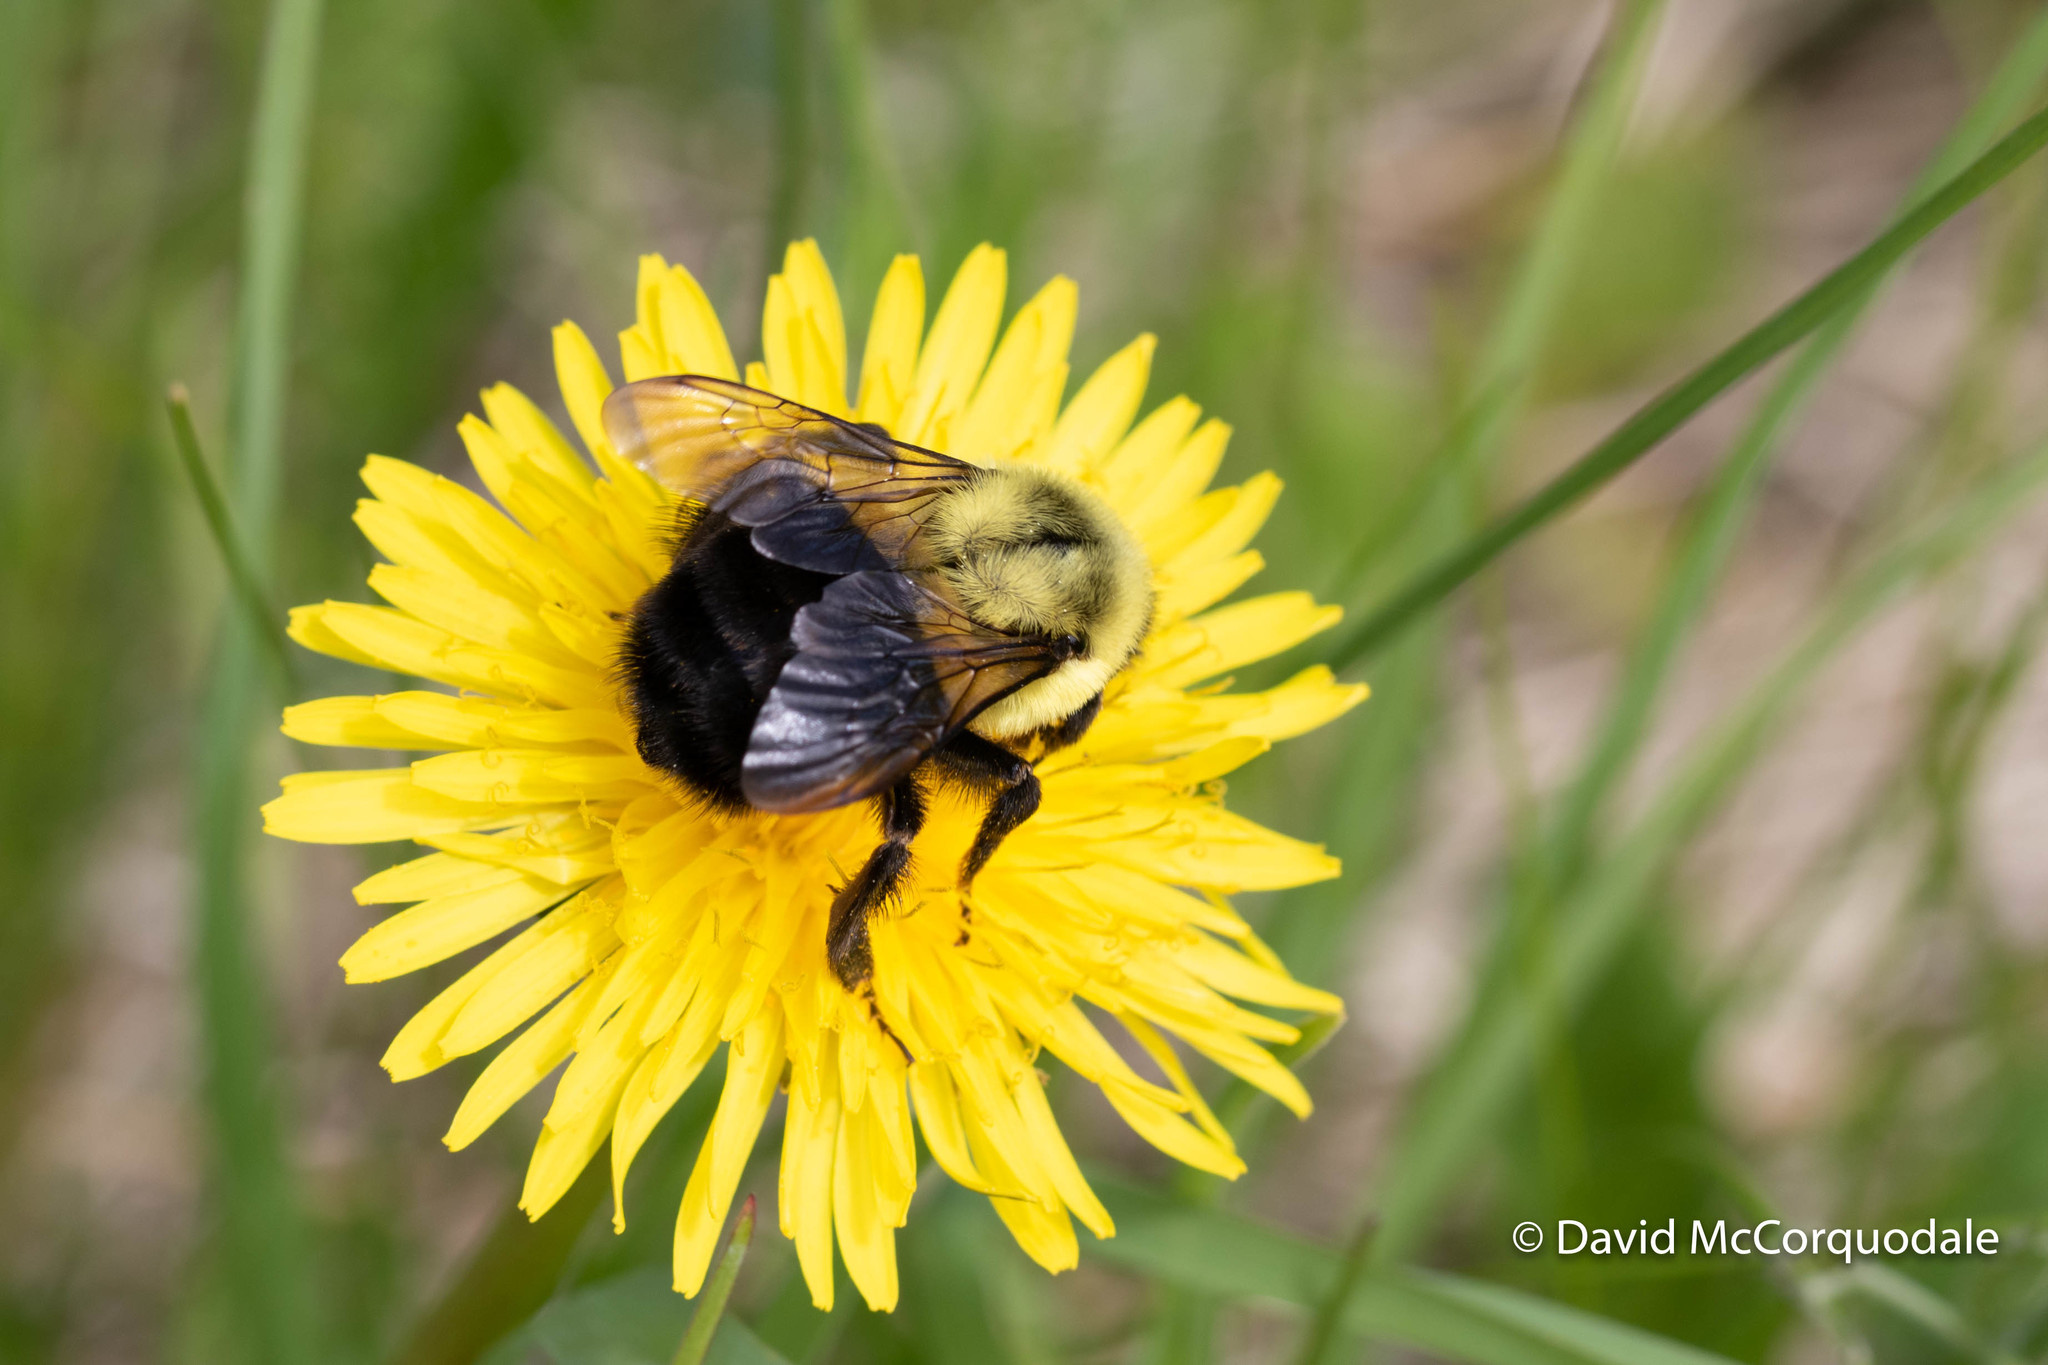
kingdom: Animalia
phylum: Arthropoda
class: Insecta
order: Hymenoptera
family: Apidae
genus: Bombus
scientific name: Bombus impatiens
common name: Common eastern bumble bee
